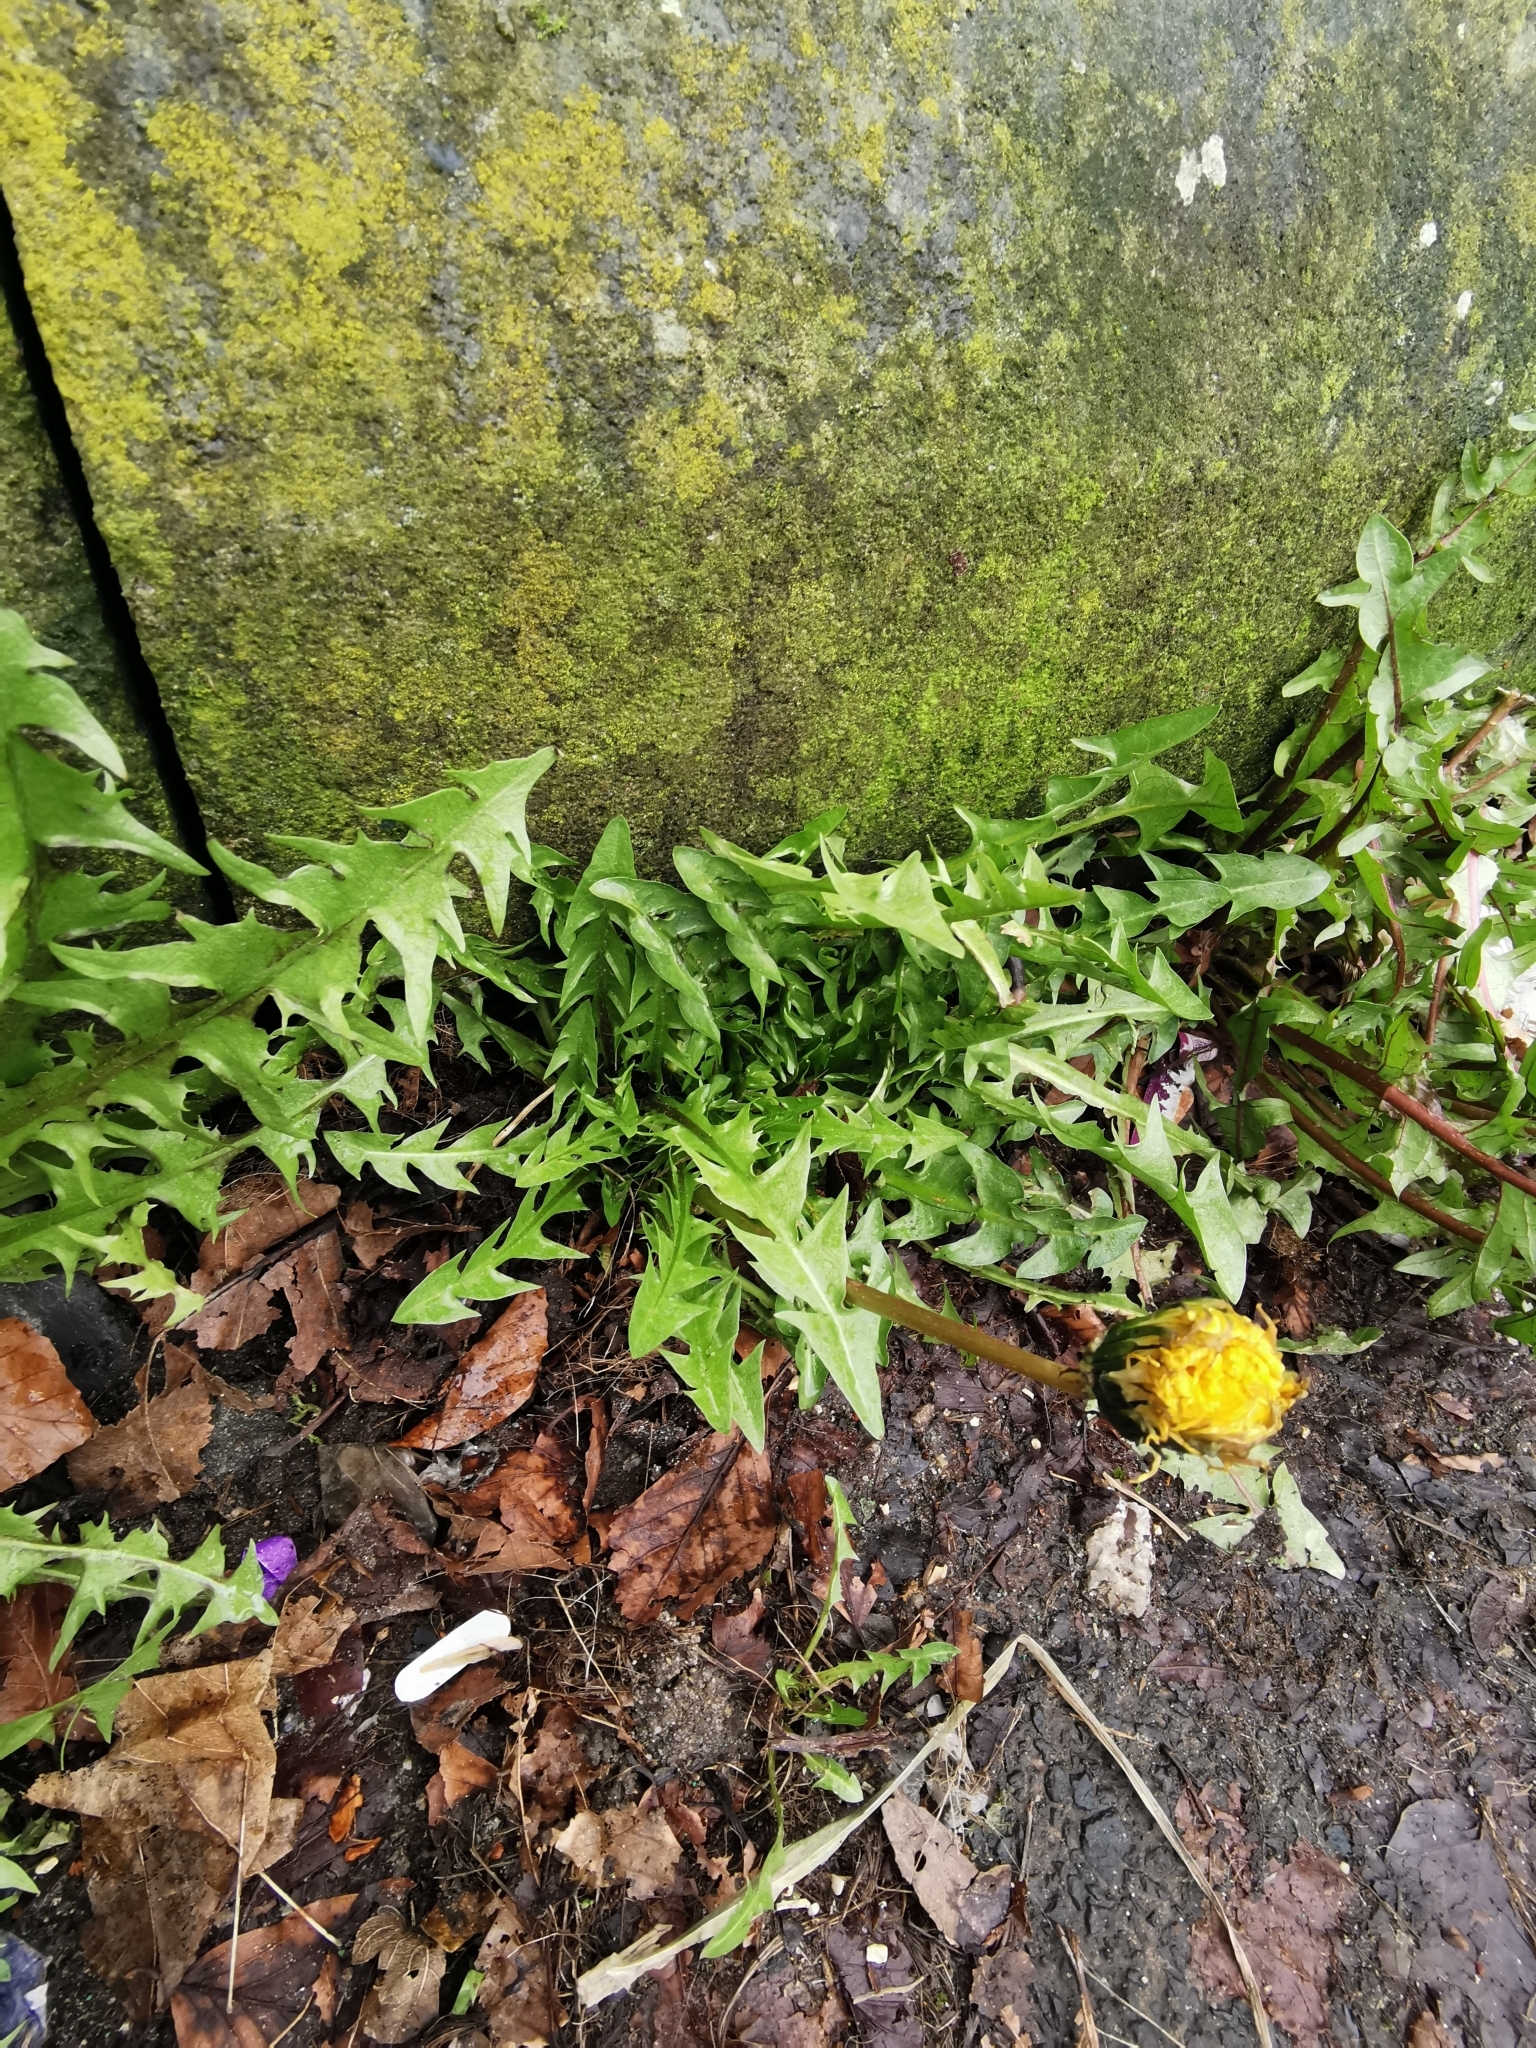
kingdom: Plantae
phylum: Tracheophyta
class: Magnoliopsida
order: Asterales
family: Asteraceae
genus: Taraxacum
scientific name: Taraxacum officinale
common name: Common dandelion
